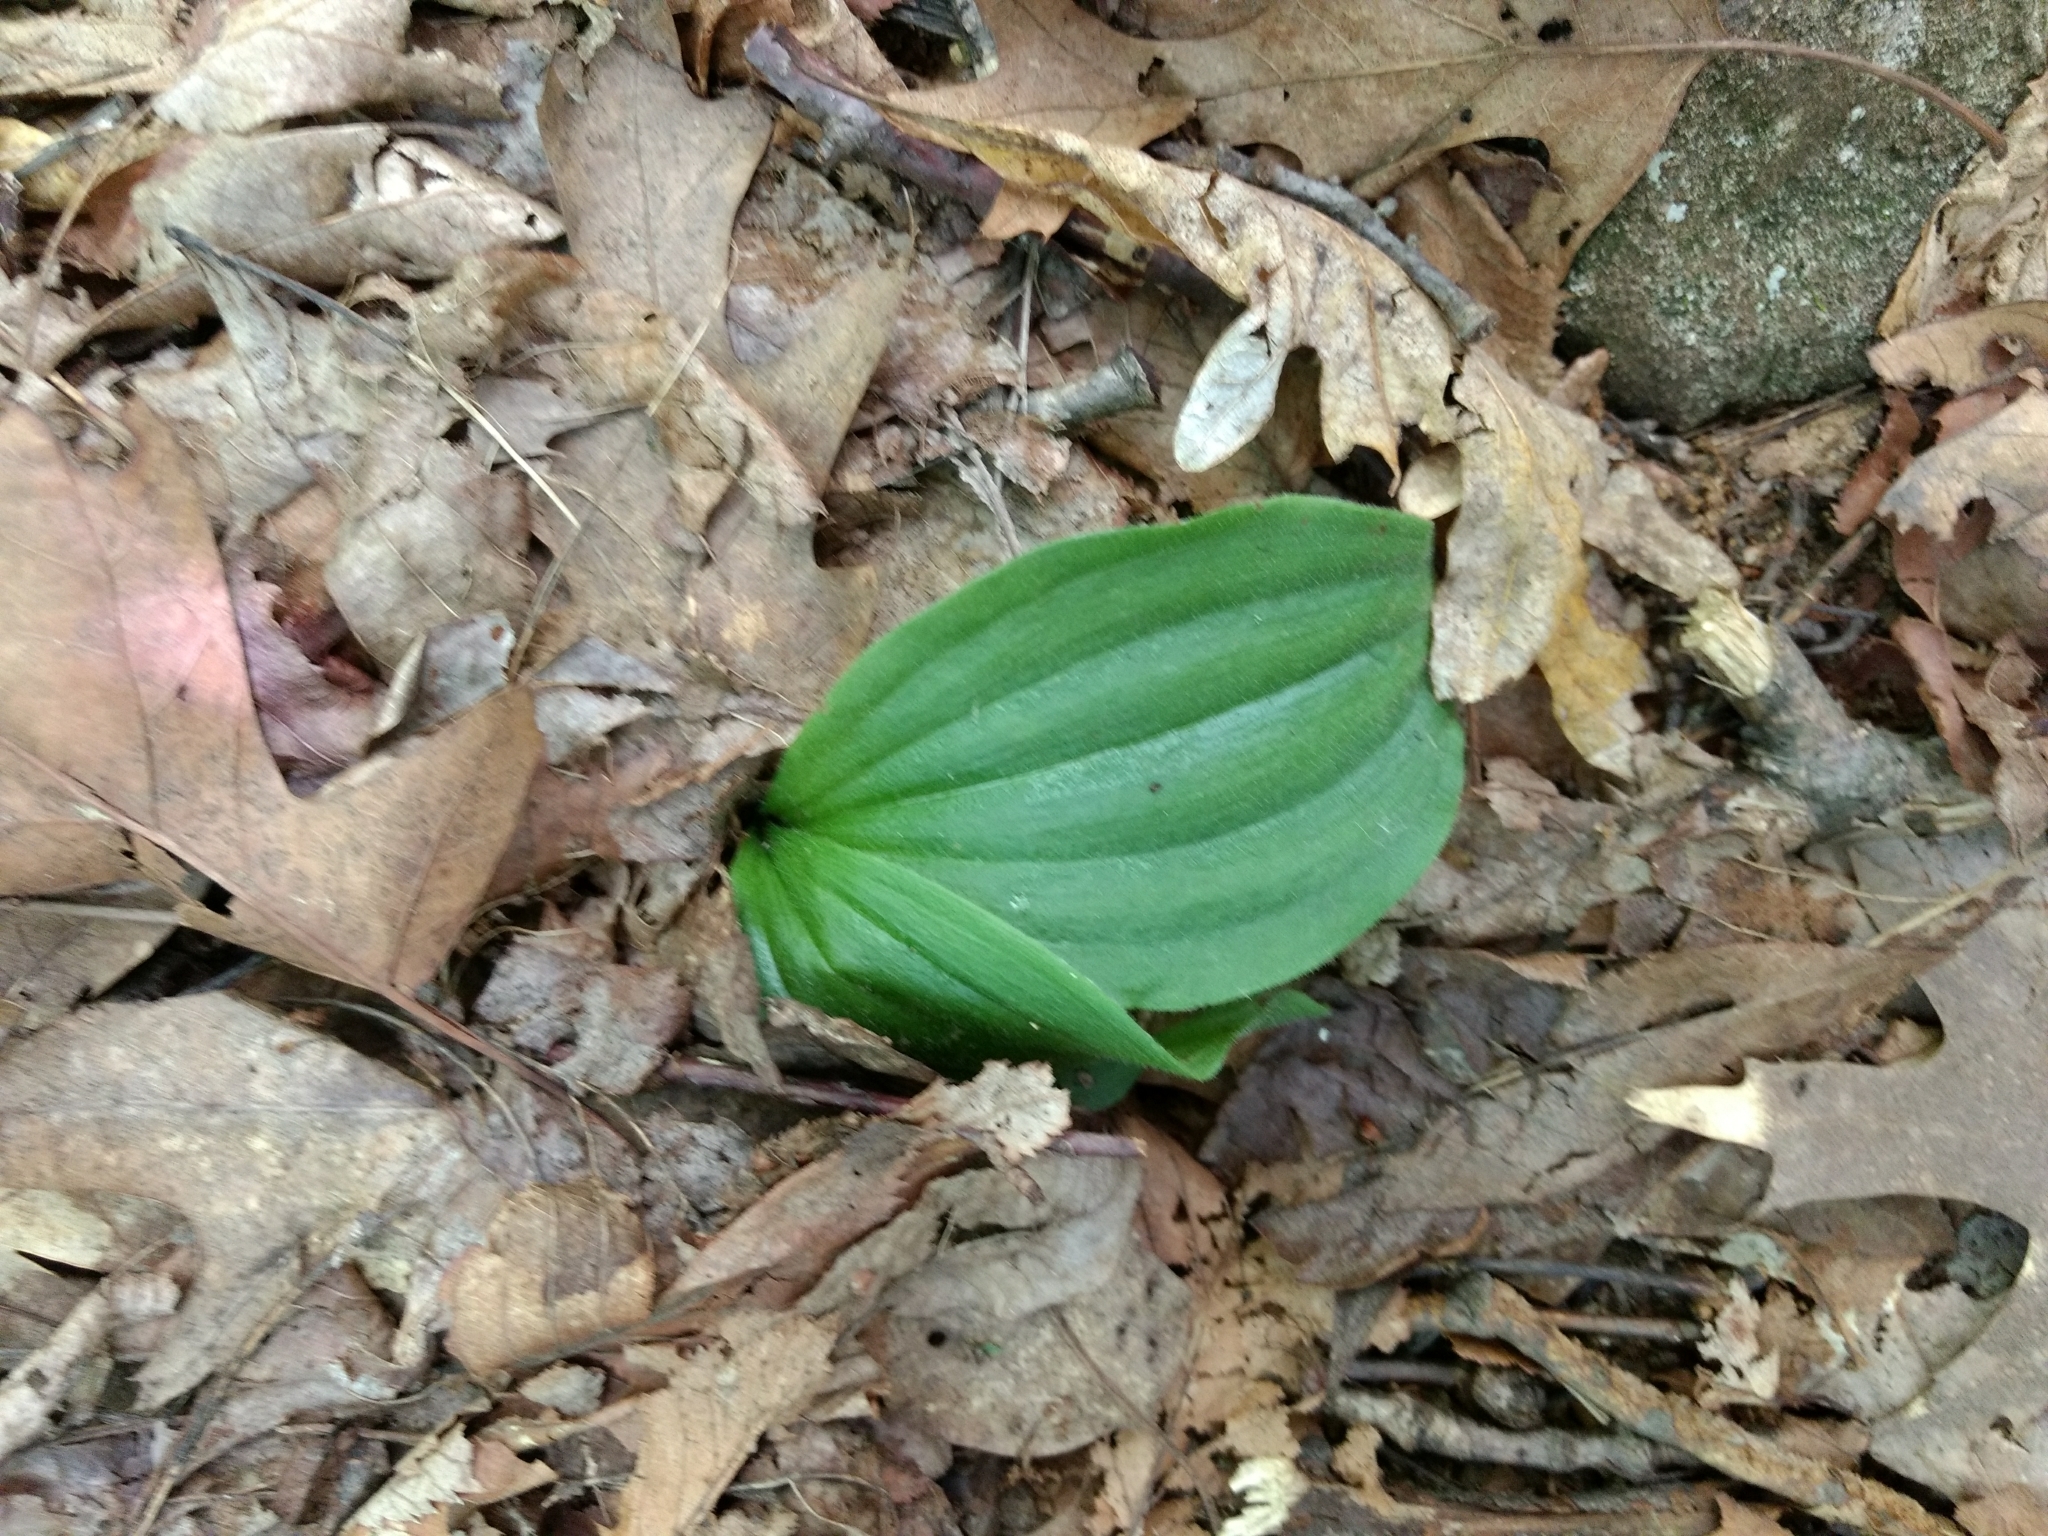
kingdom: Plantae
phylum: Tracheophyta
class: Liliopsida
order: Asparagales
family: Orchidaceae
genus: Cypripedium
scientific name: Cypripedium acaule
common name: Pink lady's-slipper
